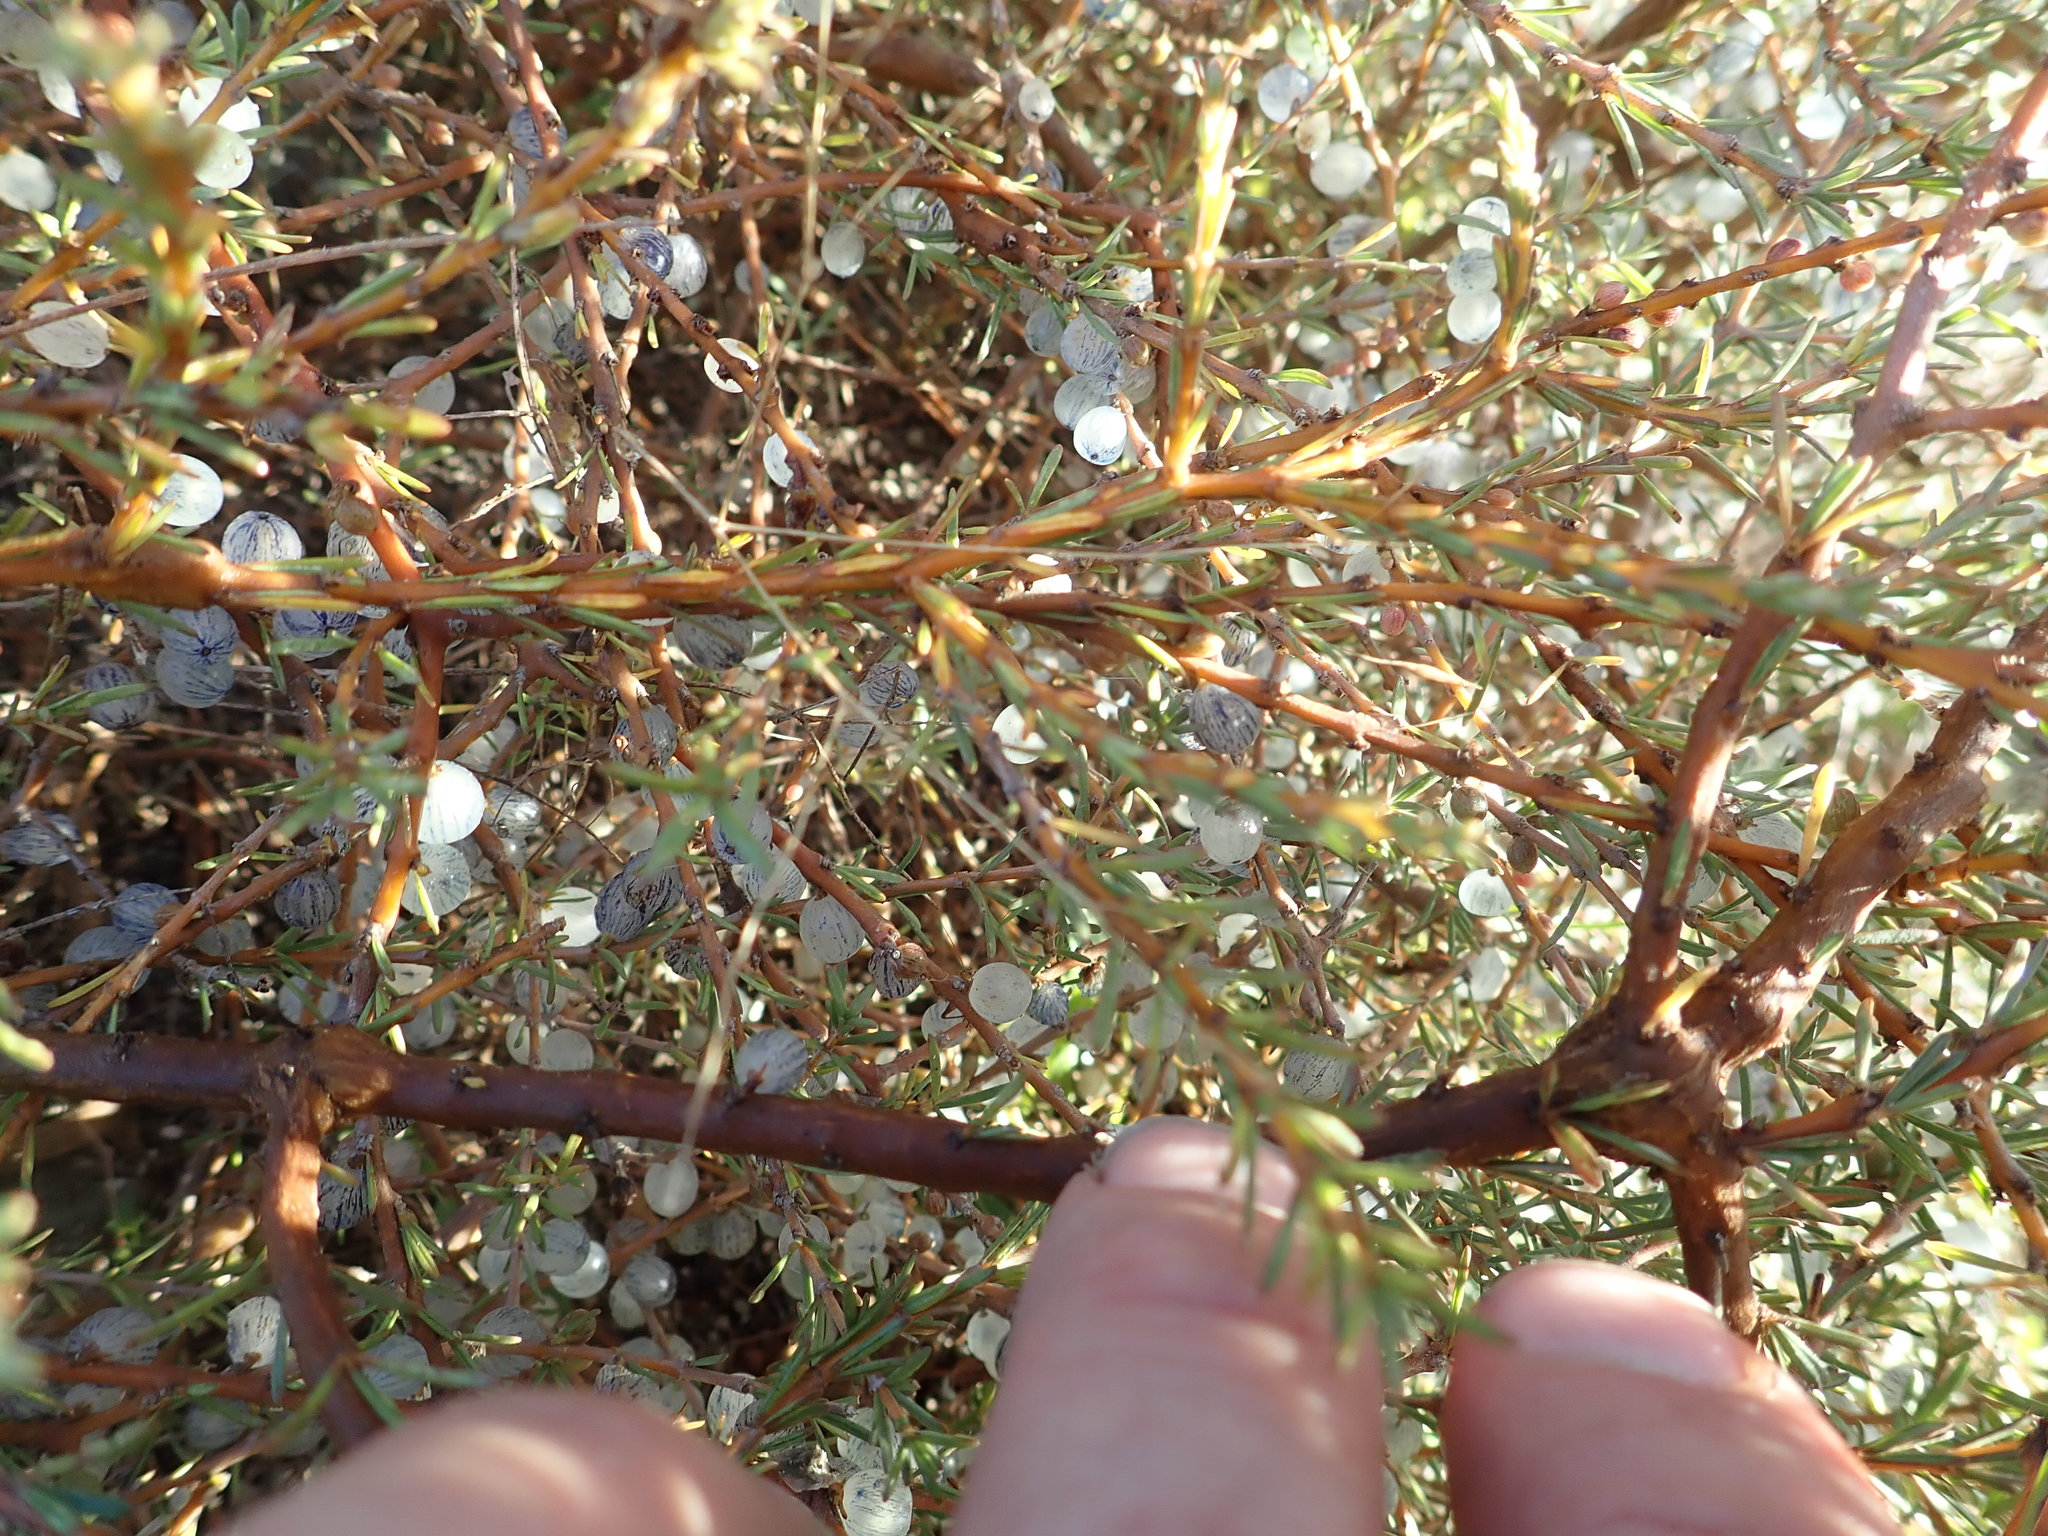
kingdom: Plantae
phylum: Tracheophyta
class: Magnoliopsida
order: Gentianales
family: Rubiaceae
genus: Coprosma
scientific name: Coprosma acerosa
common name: Sand coprosma
